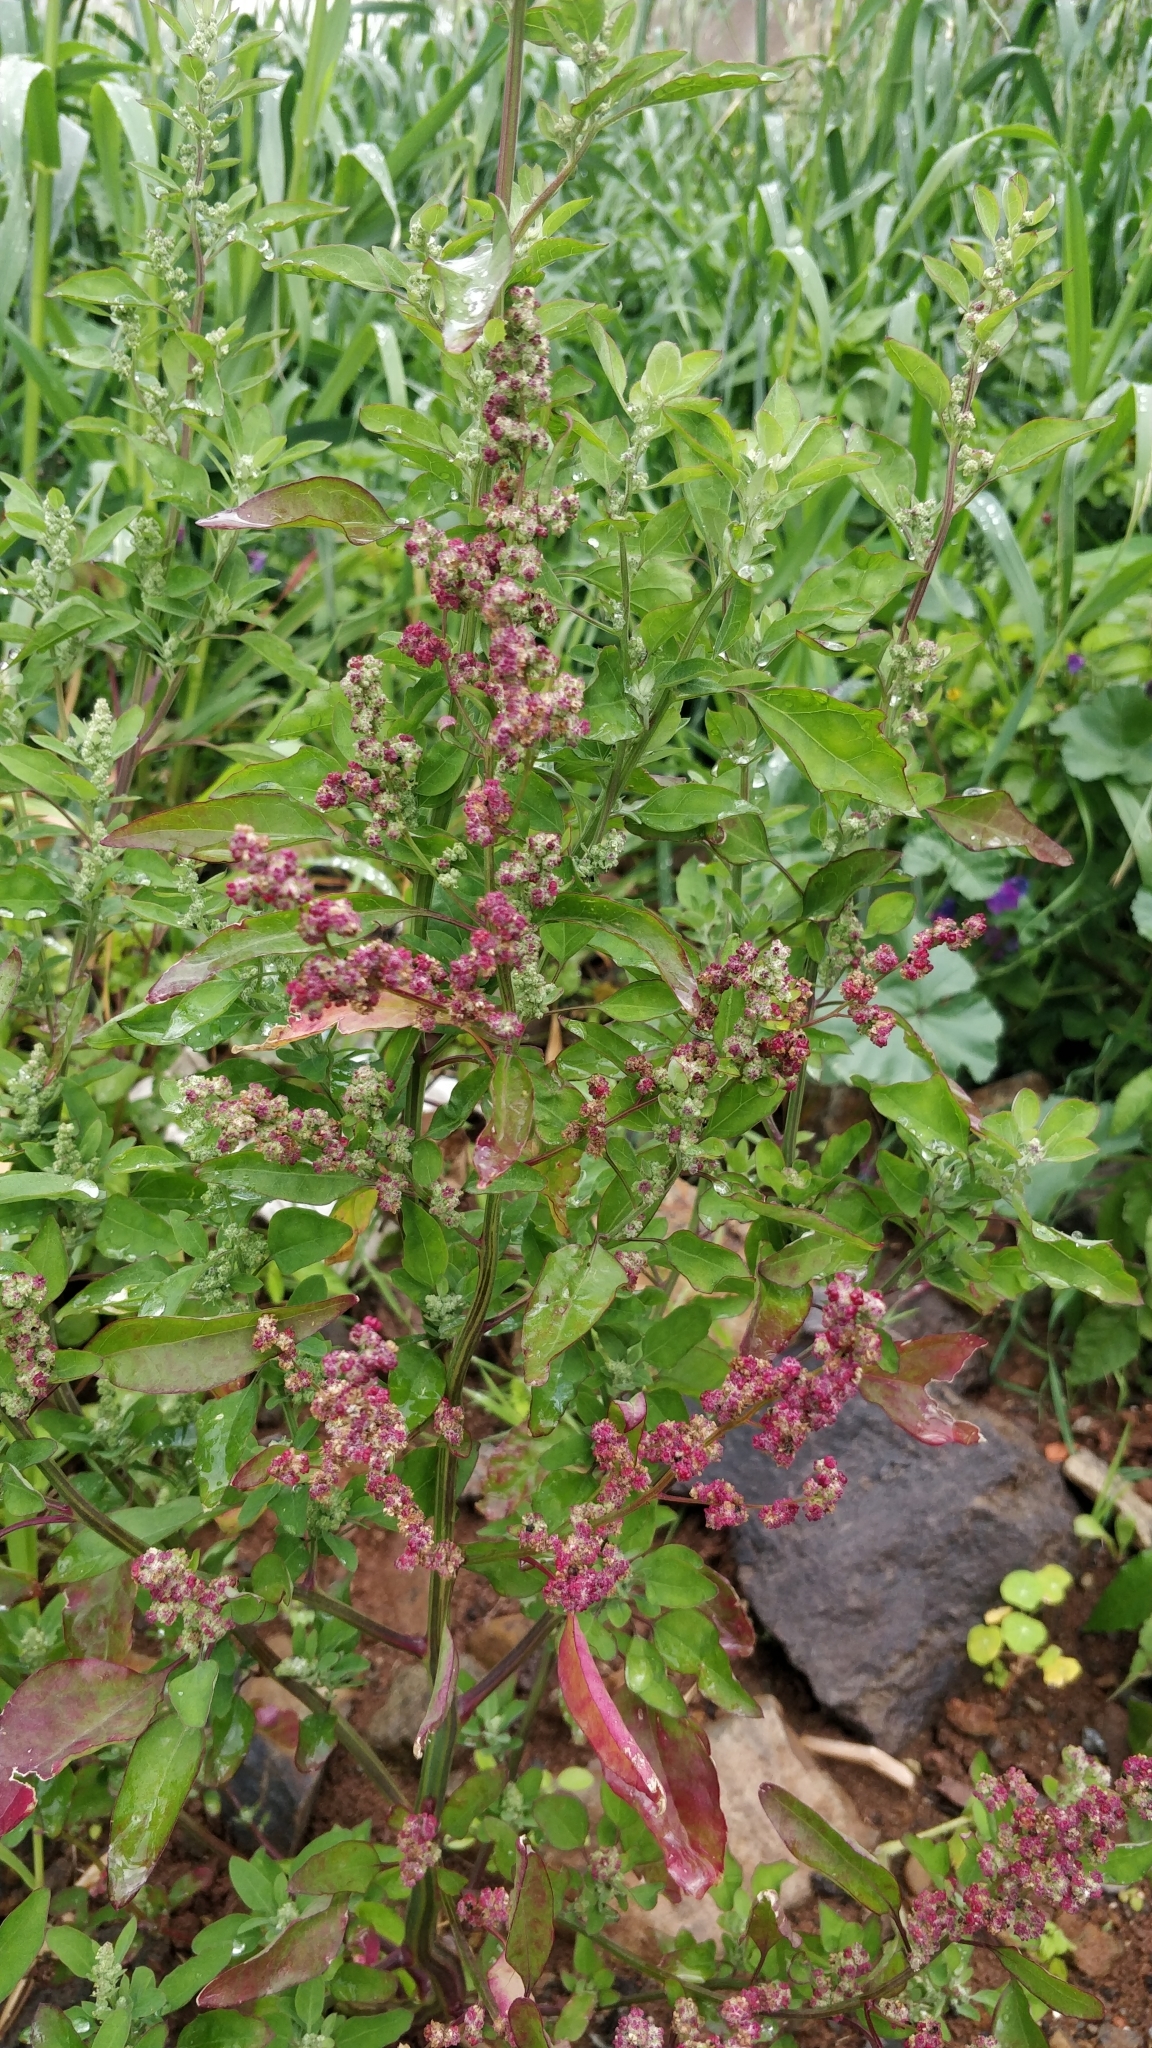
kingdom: Plantae
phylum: Tracheophyta
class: Magnoliopsida
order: Caryophyllales
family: Amaranthaceae
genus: Chenopodiastrum
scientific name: Chenopodiastrum murale
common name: Sowbane
